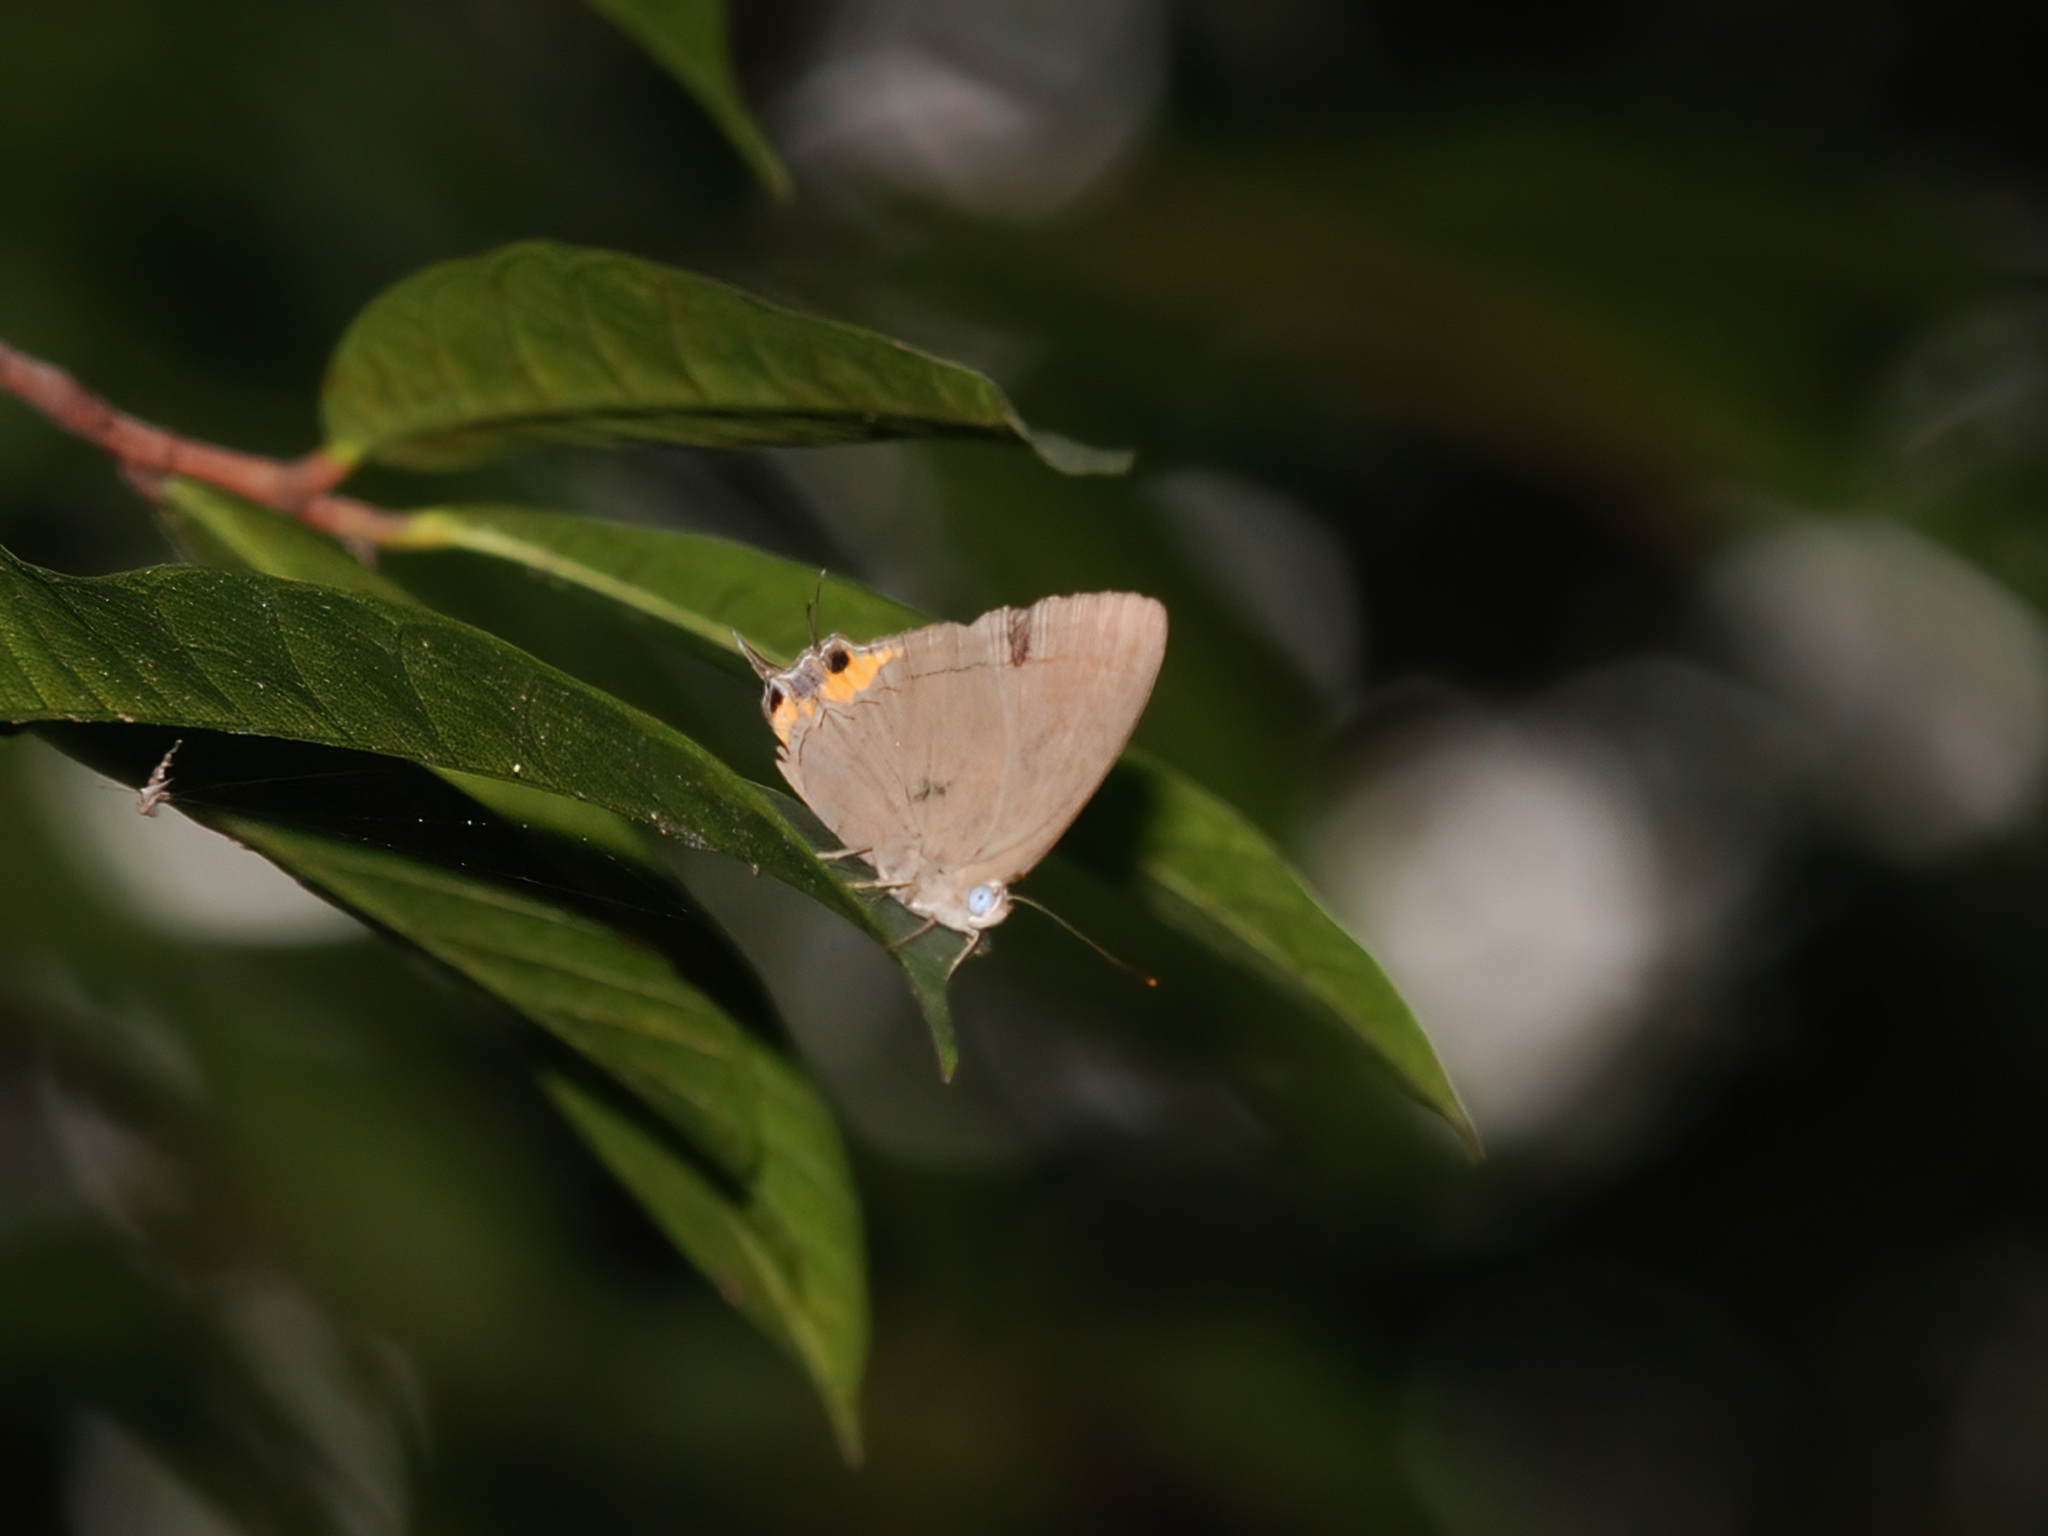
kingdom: Animalia
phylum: Arthropoda
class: Insecta
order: Lepidoptera
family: Lycaenidae
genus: Tajuria
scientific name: Tajuria mantra
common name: Felder's royal
